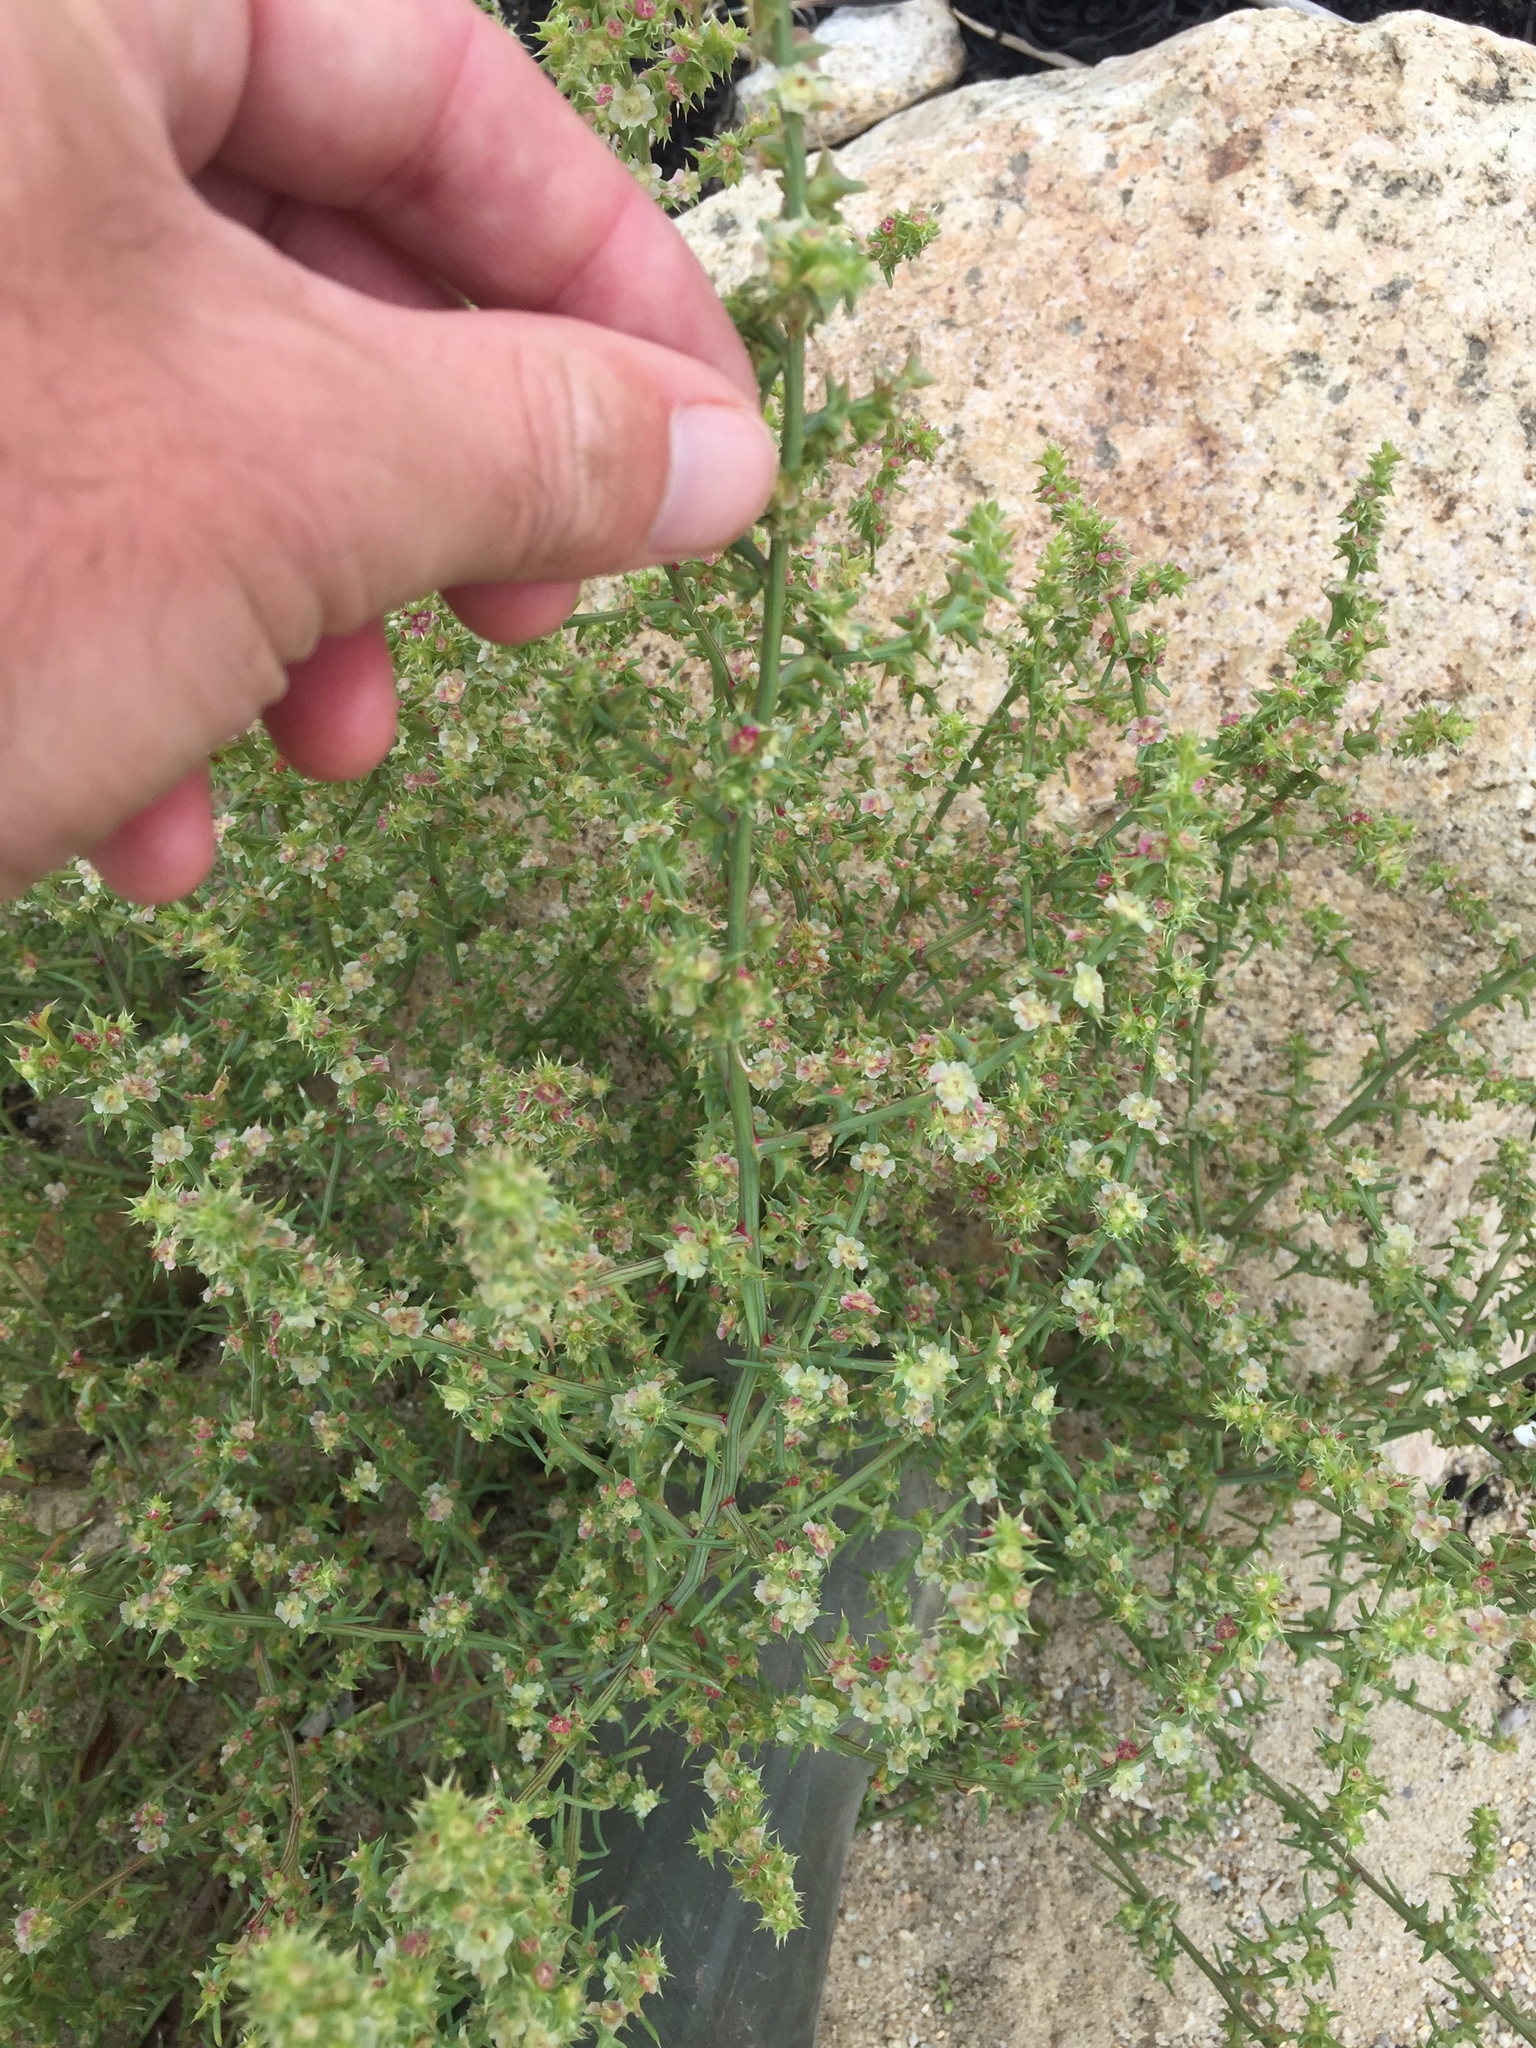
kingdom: Plantae
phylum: Tracheophyta
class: Magnoliopsida
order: Caryophyllales
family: Amaranthaceae
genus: Salsola
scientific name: Salsola kali
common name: Saltwort
